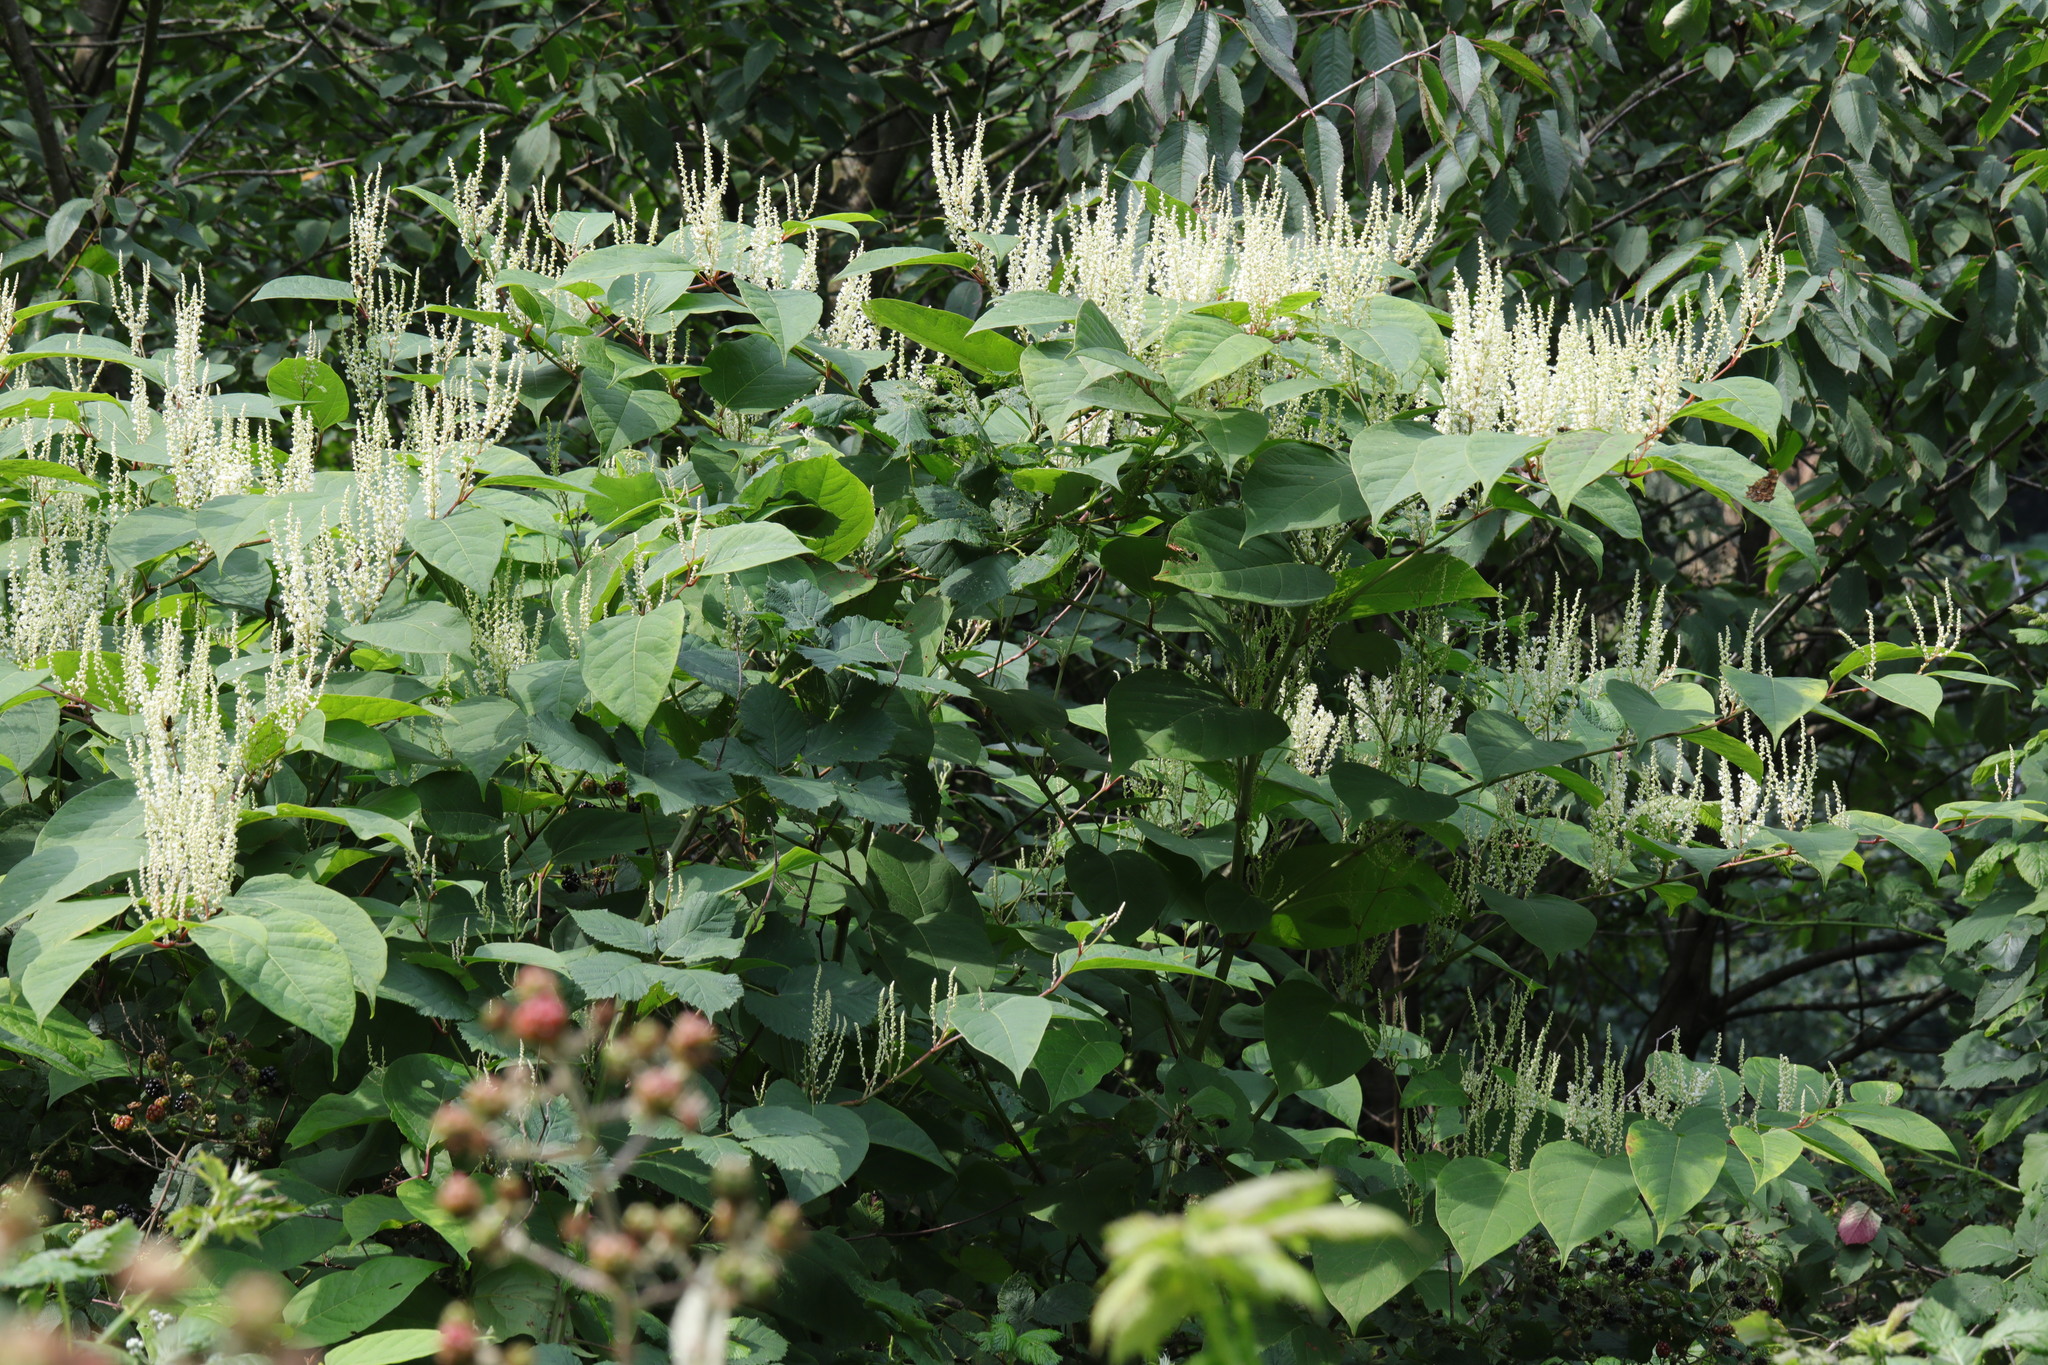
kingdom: Plantae
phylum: Tracheophyta
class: Magnoliopsida
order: Caryophyllales
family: Polygonaceae
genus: Reynoutria
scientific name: Reynoutria japonica
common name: Japanese knotweed
